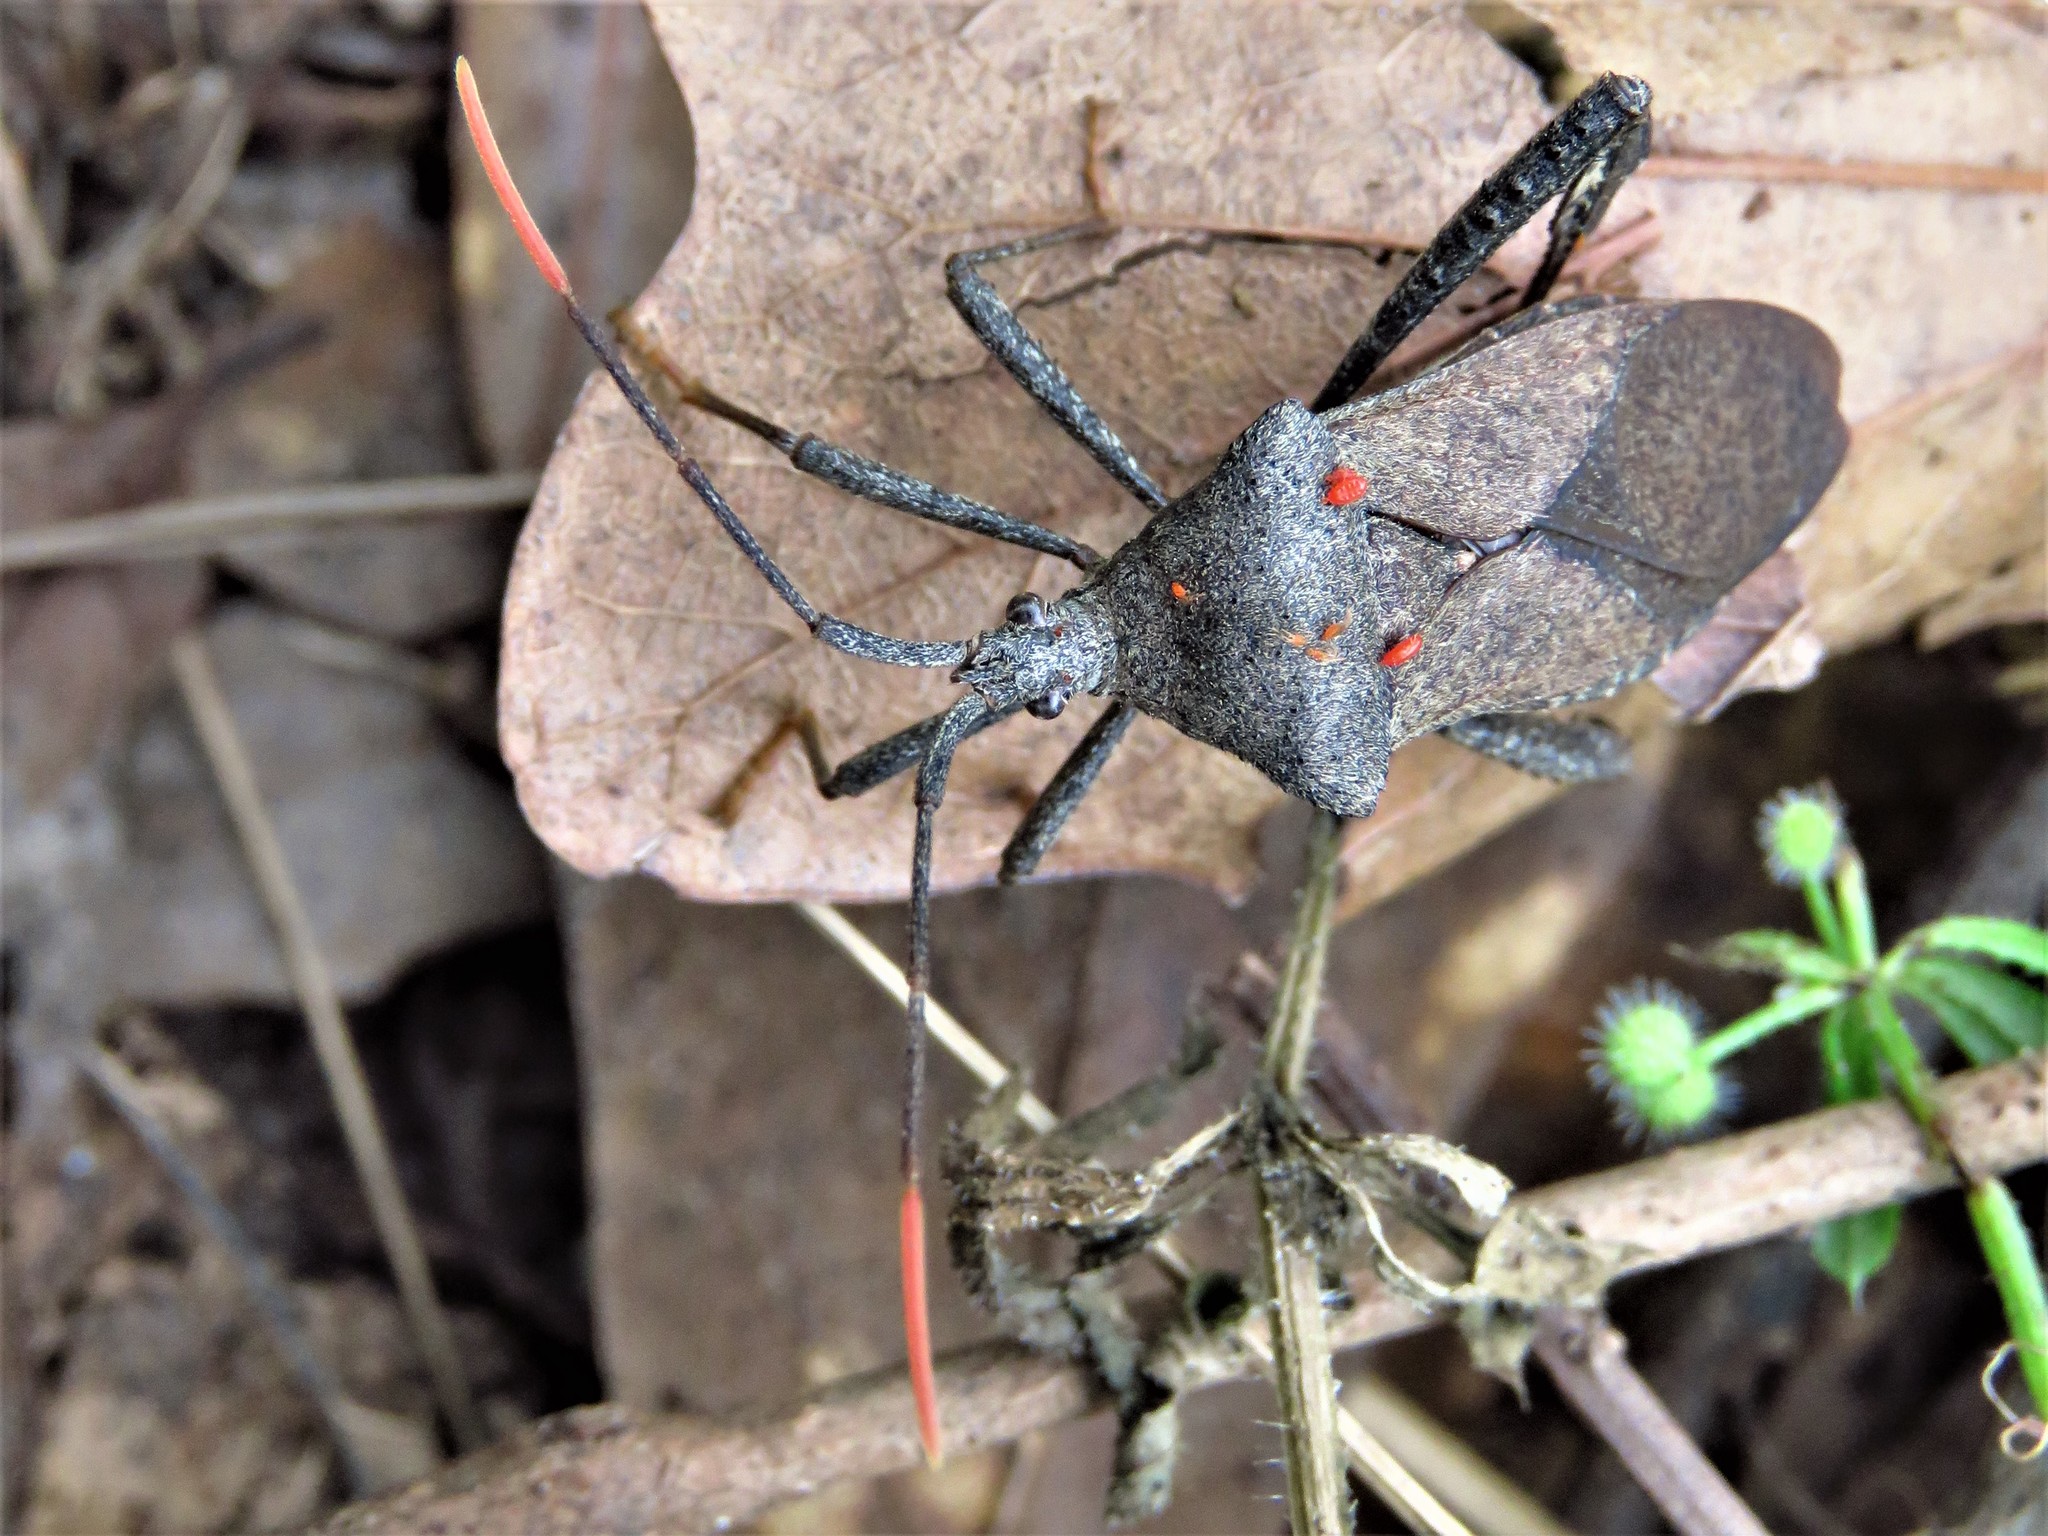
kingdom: Animalia
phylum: Arthropoda
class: Insecta
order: Hemiptera
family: Coreidae
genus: Acanthocephala
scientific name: Acanthocephala terminalis
